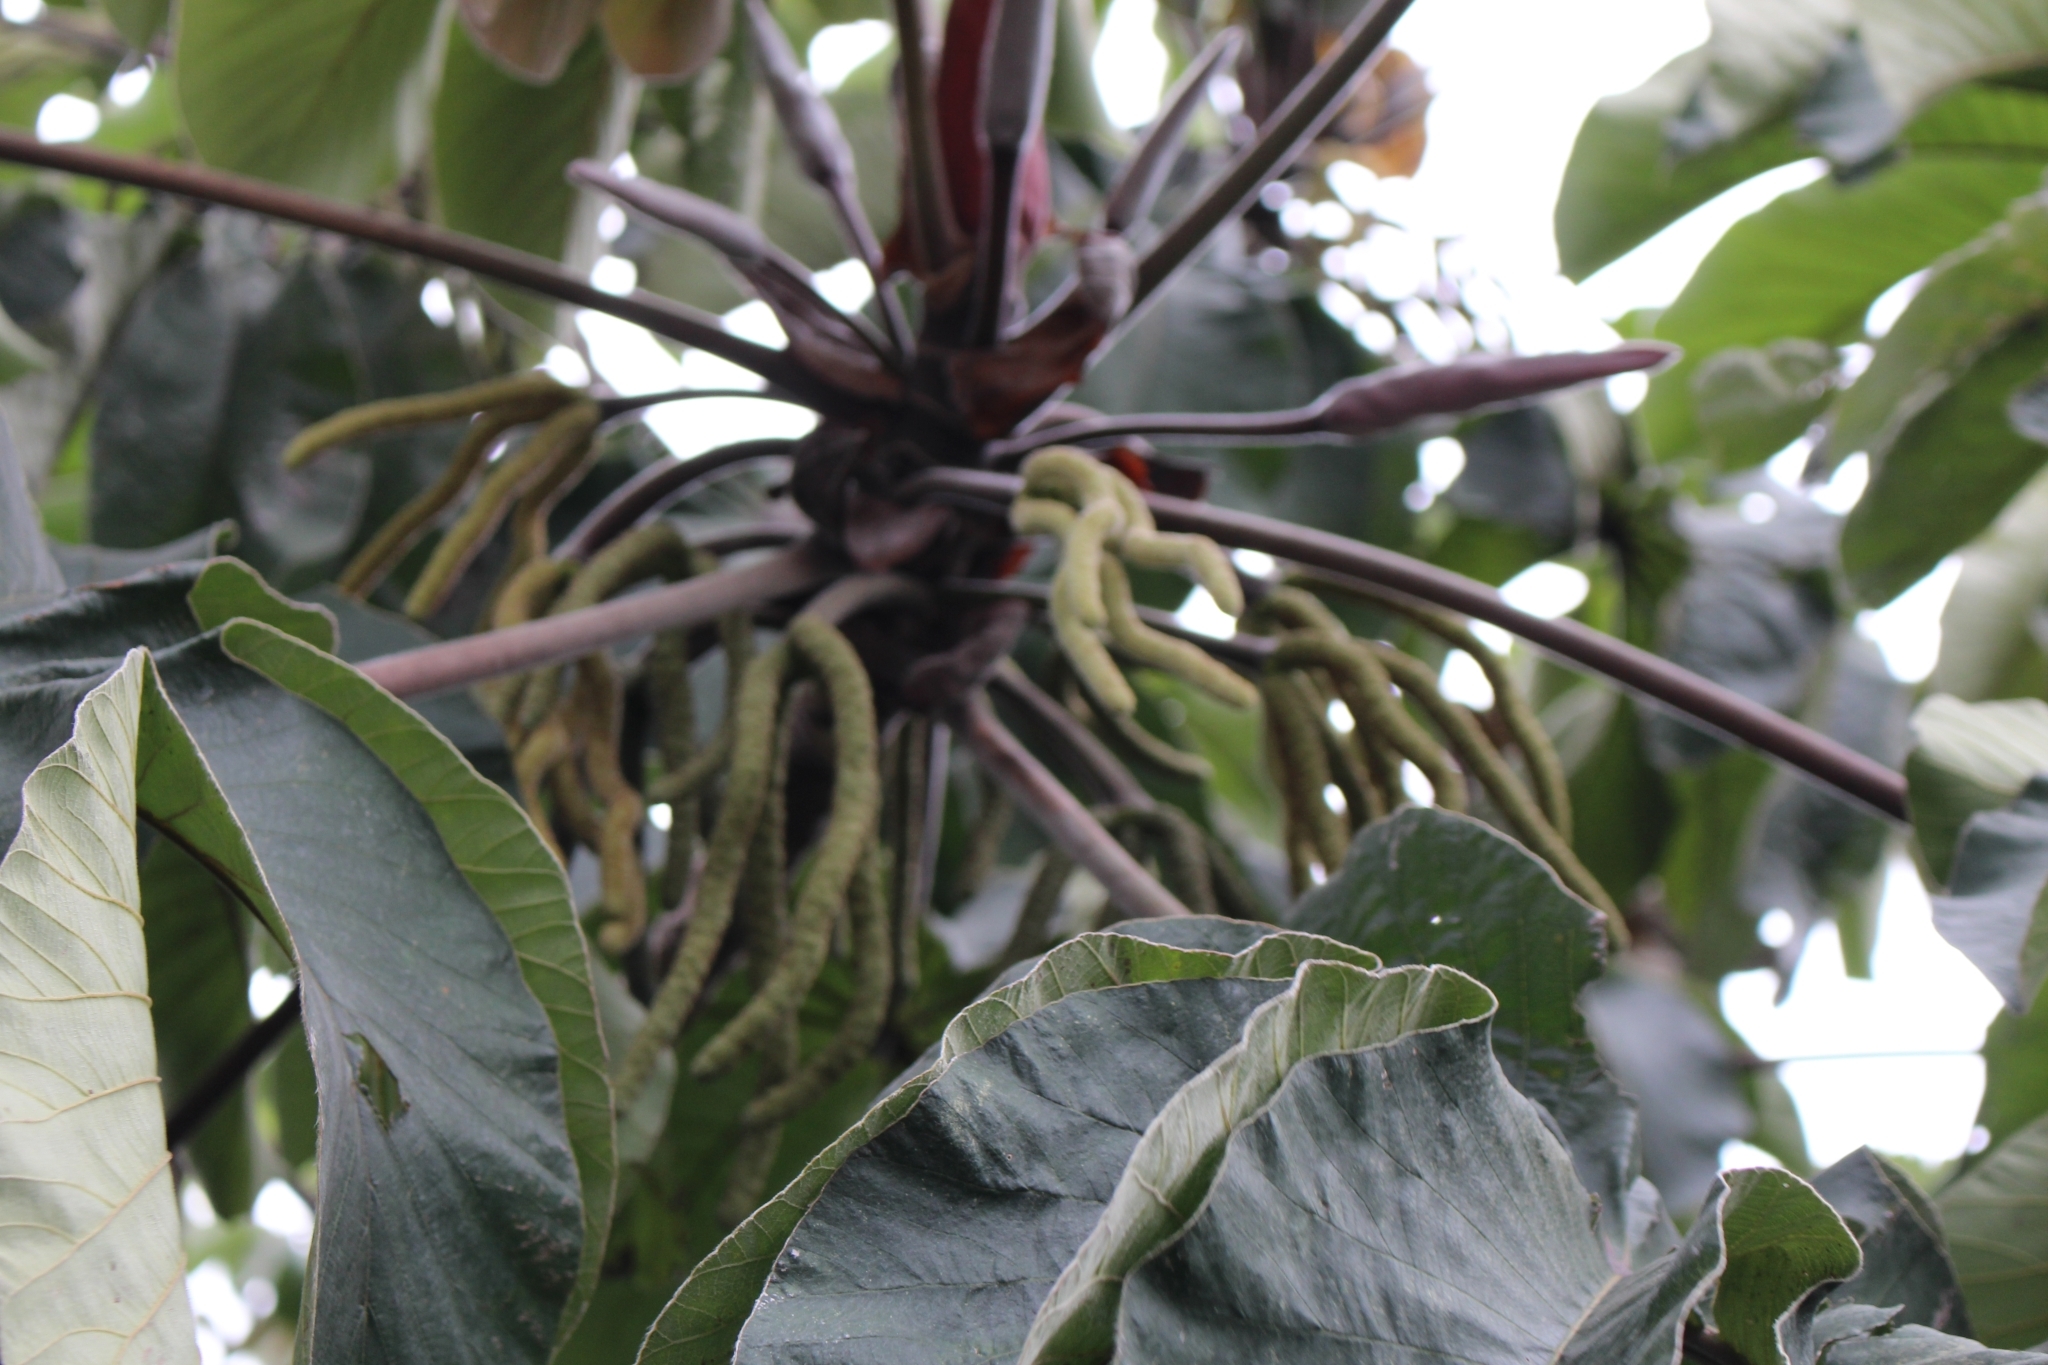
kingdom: Plantae
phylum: Tracheophyta
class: Magnoliopsida
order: Rosales
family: Urticaceae
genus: Cecropia
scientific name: Cecropia obtusifolia
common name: Trumpet tree
